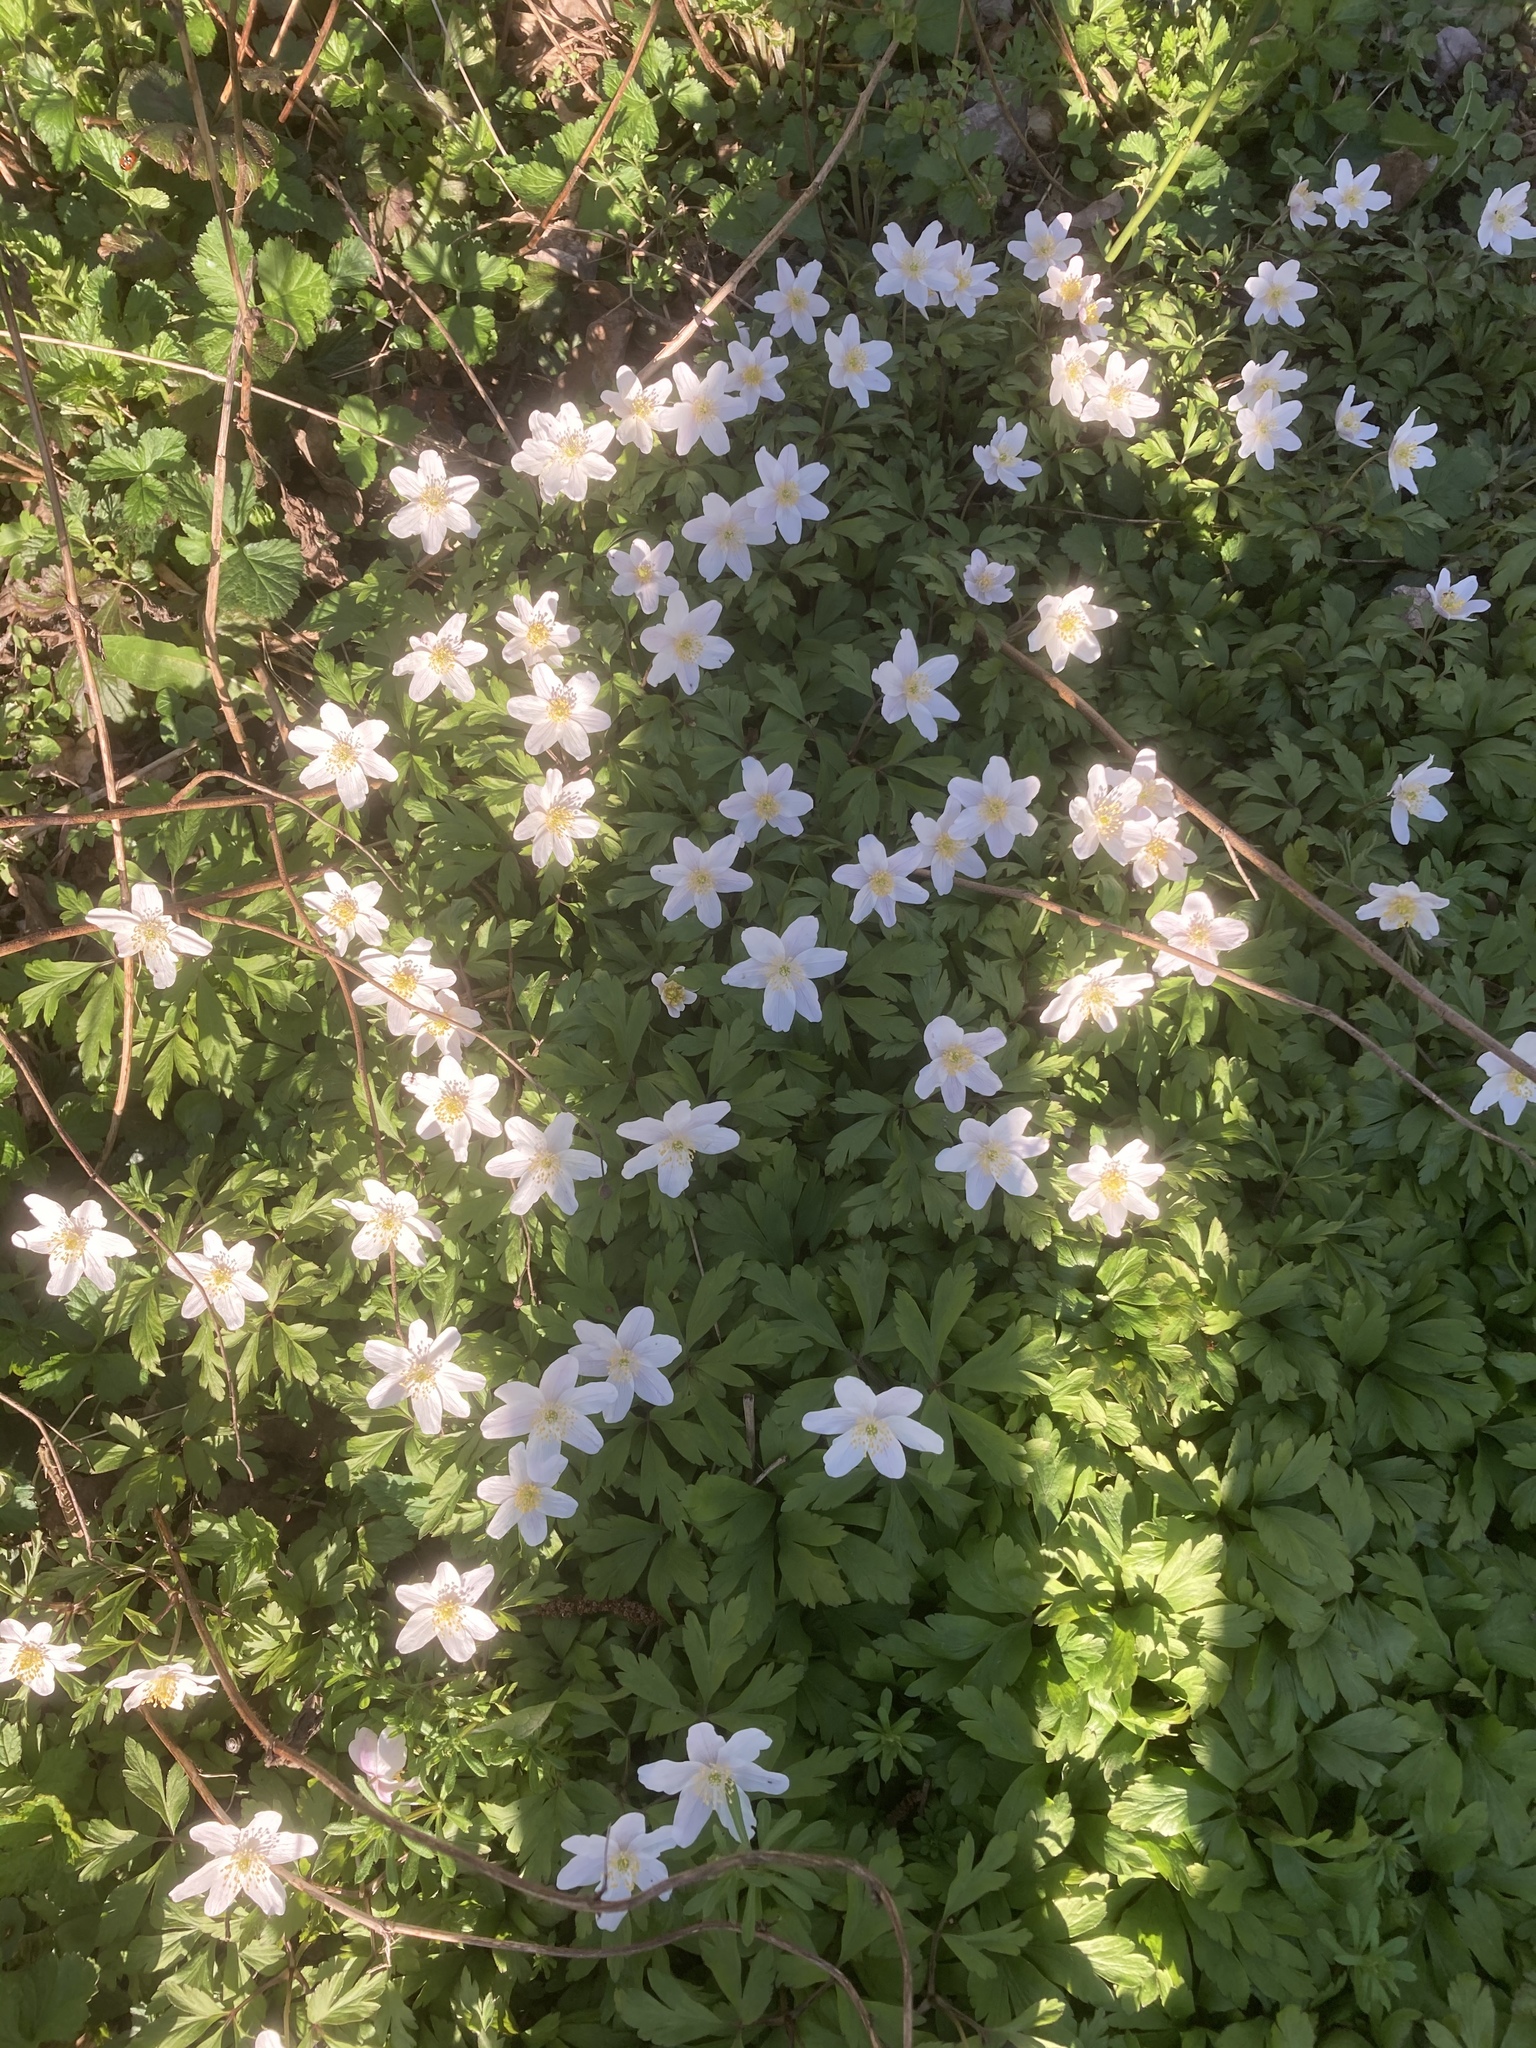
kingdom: Plantae
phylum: Tracheophyta
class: Magnoliopsida
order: Ranunculales
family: Ranunculaceae
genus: Anemone
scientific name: Anemone nemorosa
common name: Wood anemone
